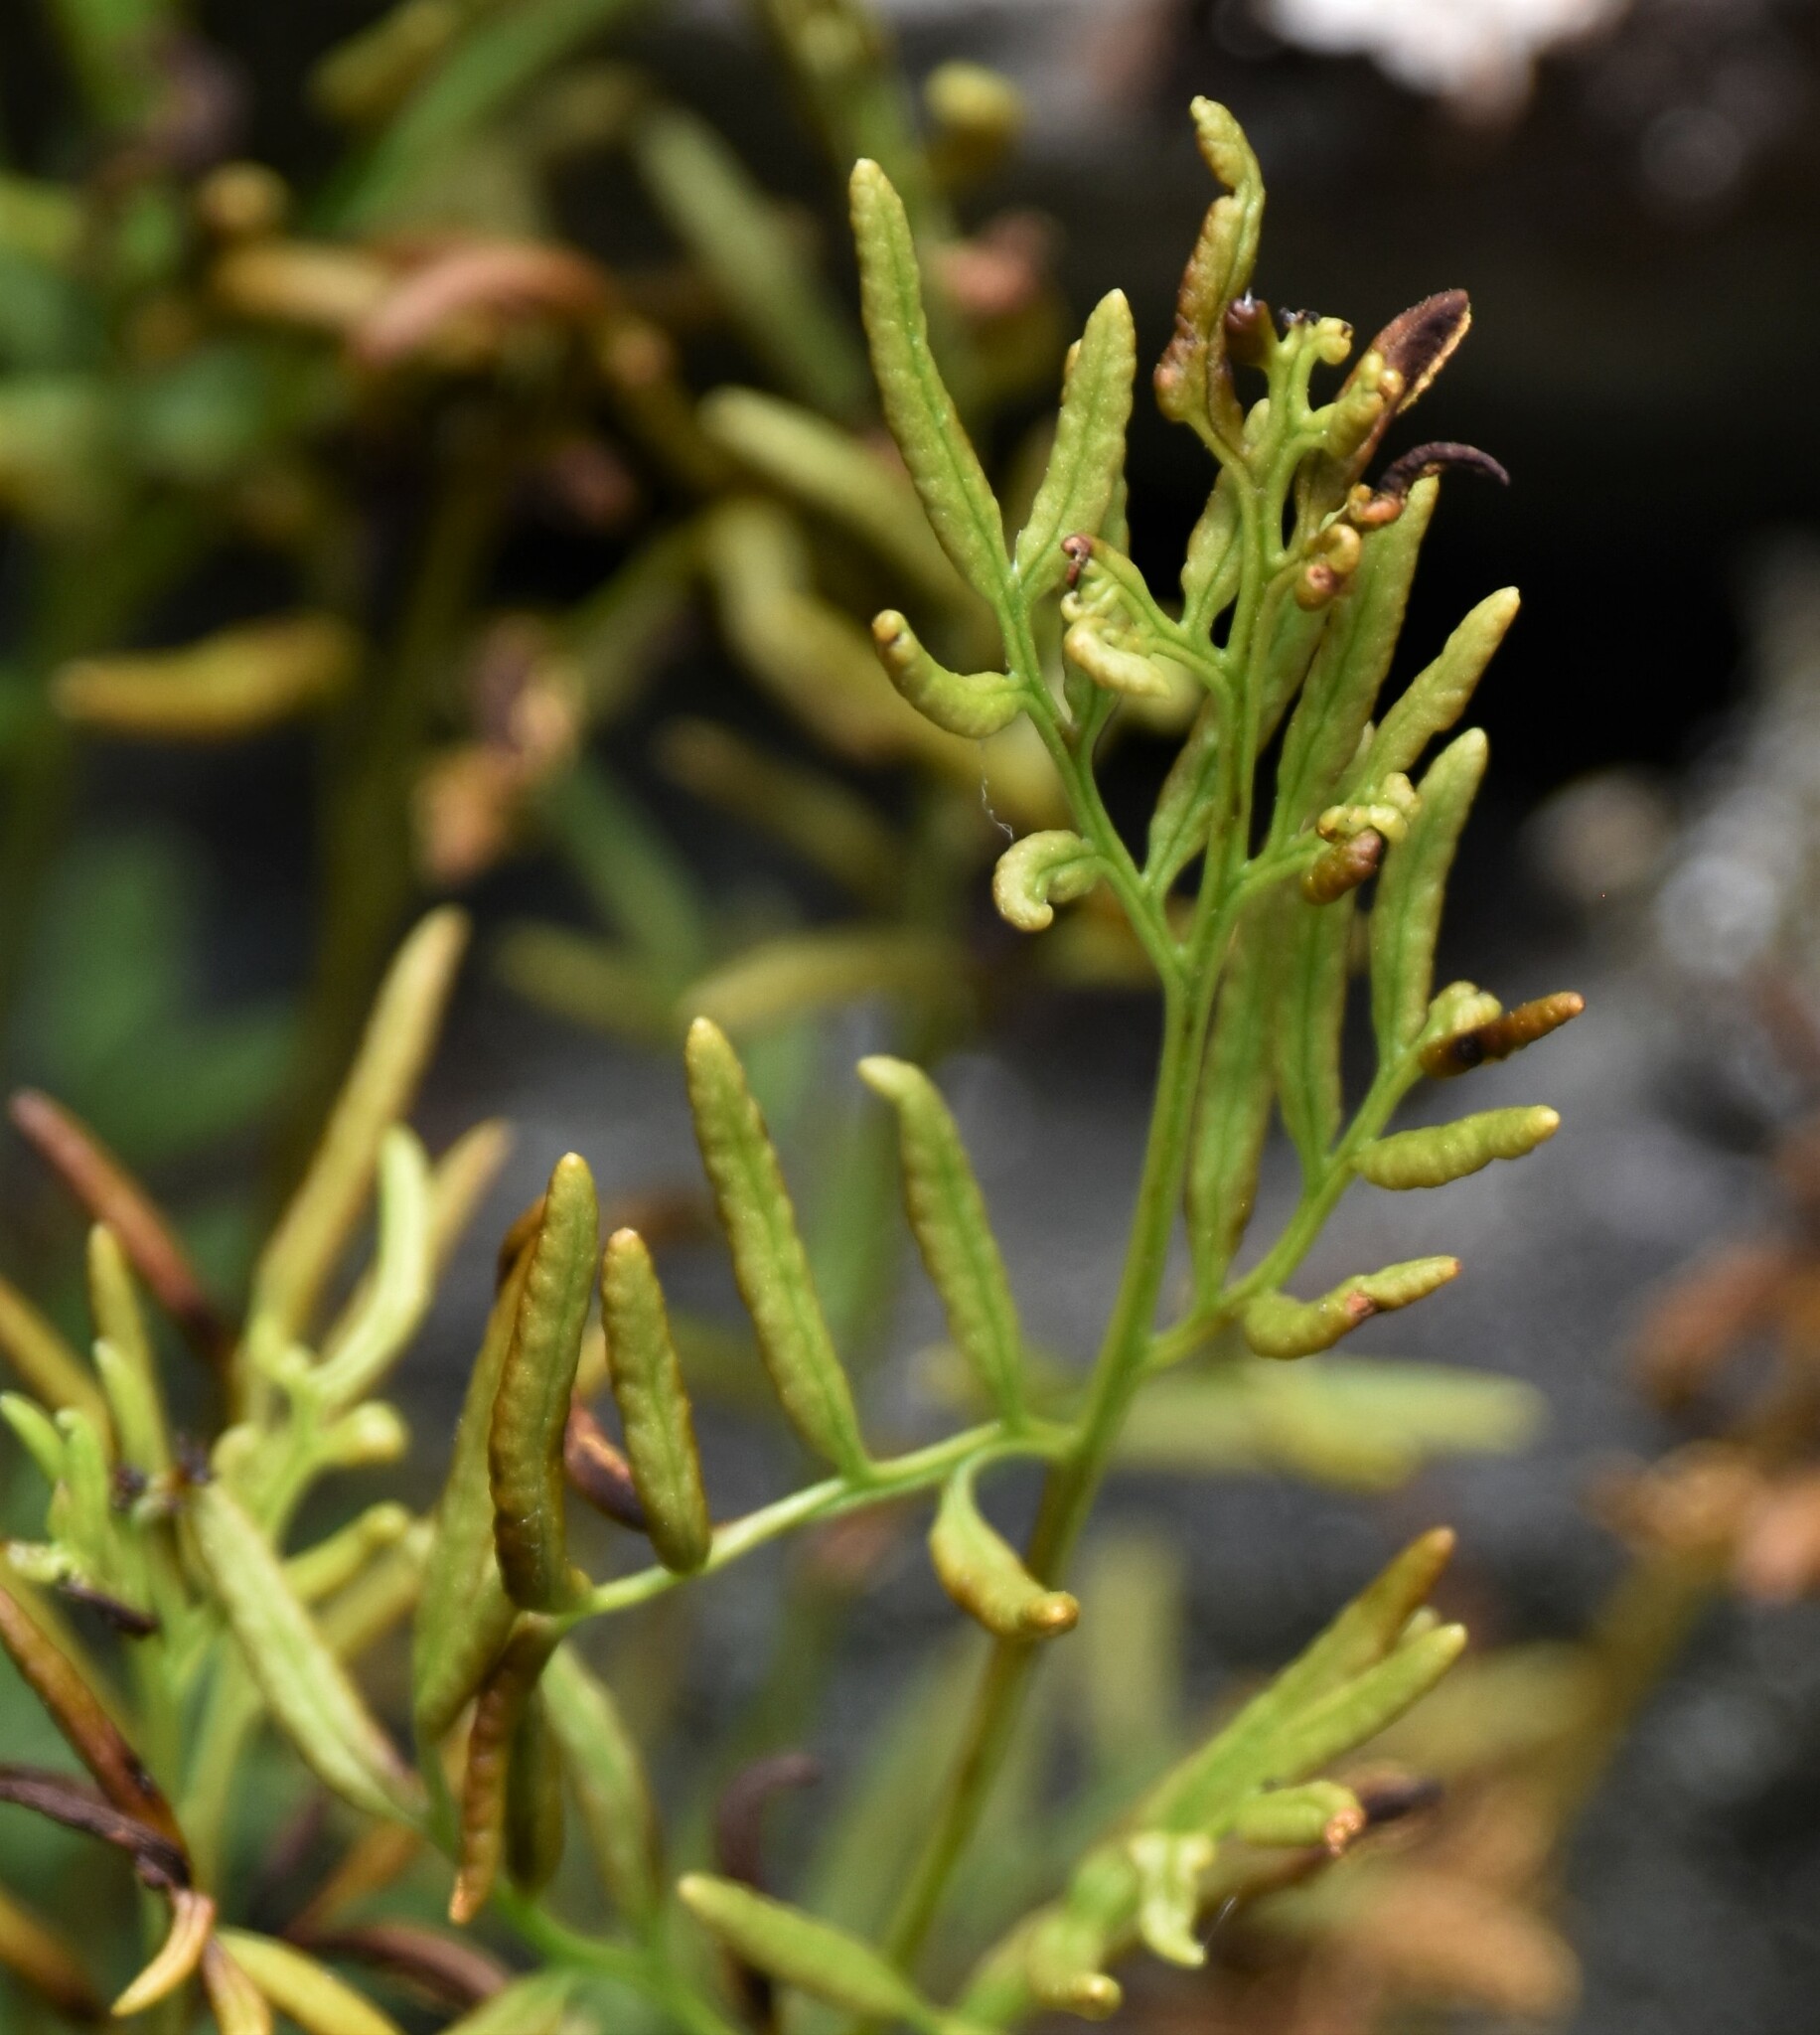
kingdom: Plantae
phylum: Tracheophyta
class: Polypodiopsida
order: Polypodiales
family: Pteridaceae
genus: Cryptogramma
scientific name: Cryptogramma acrostichoides
